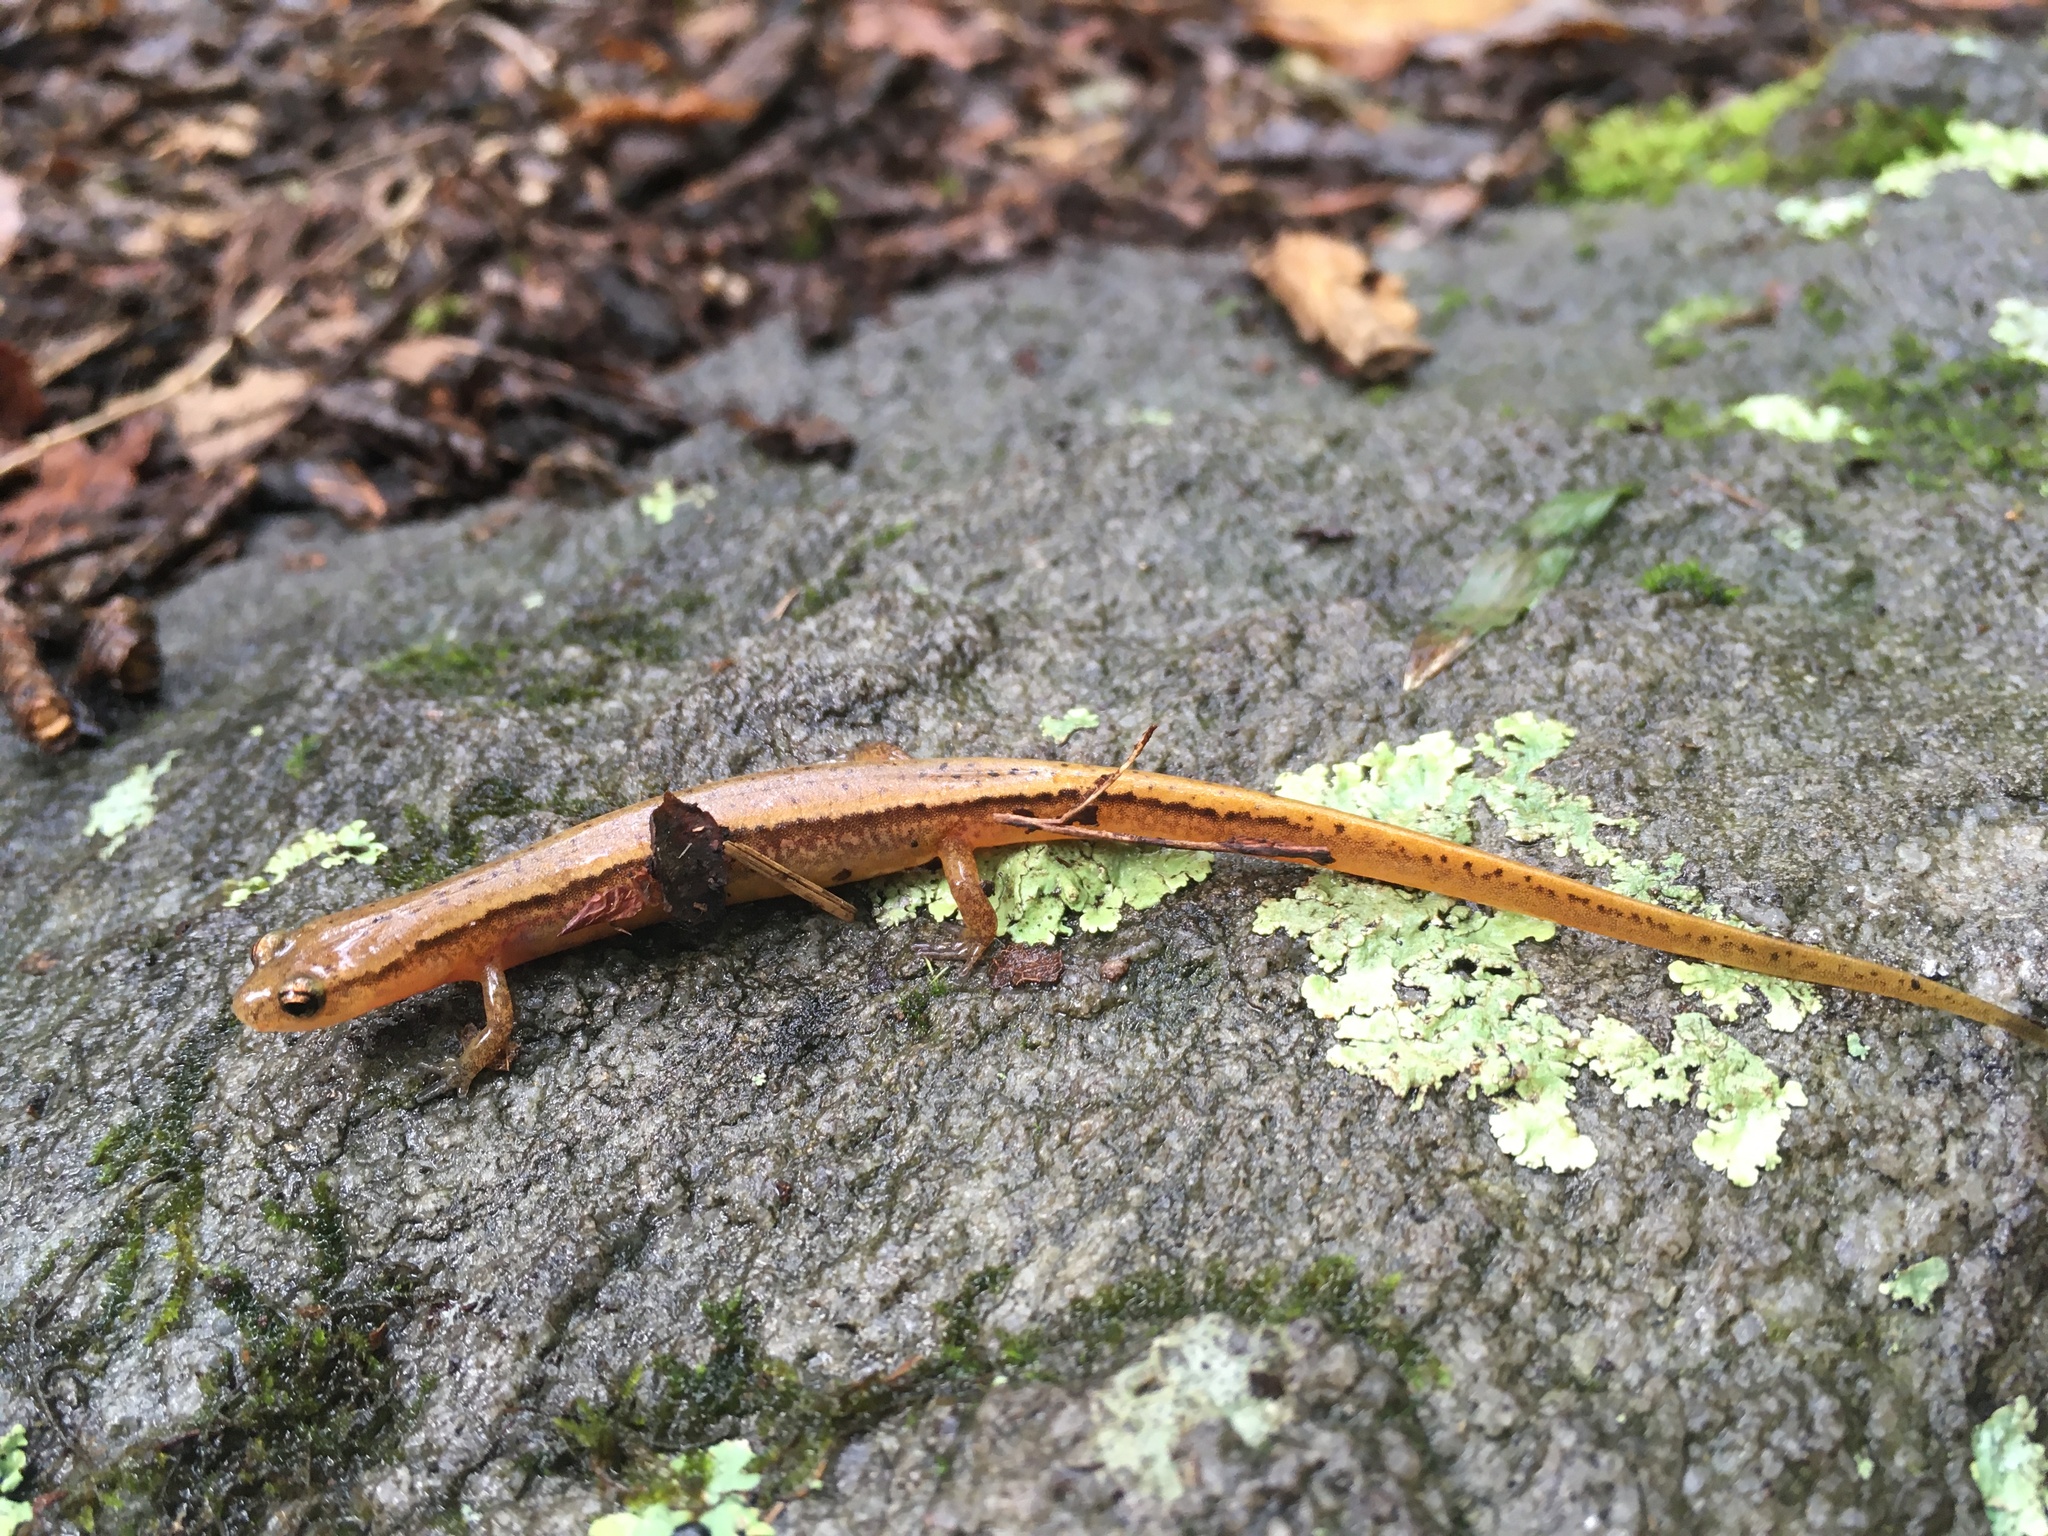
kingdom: Animalia
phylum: Chordata
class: Amphibia
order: Caudata
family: Plethodontidae
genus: Eurycea
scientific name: Eurycea bislineata
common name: Northern two-lined salamander
